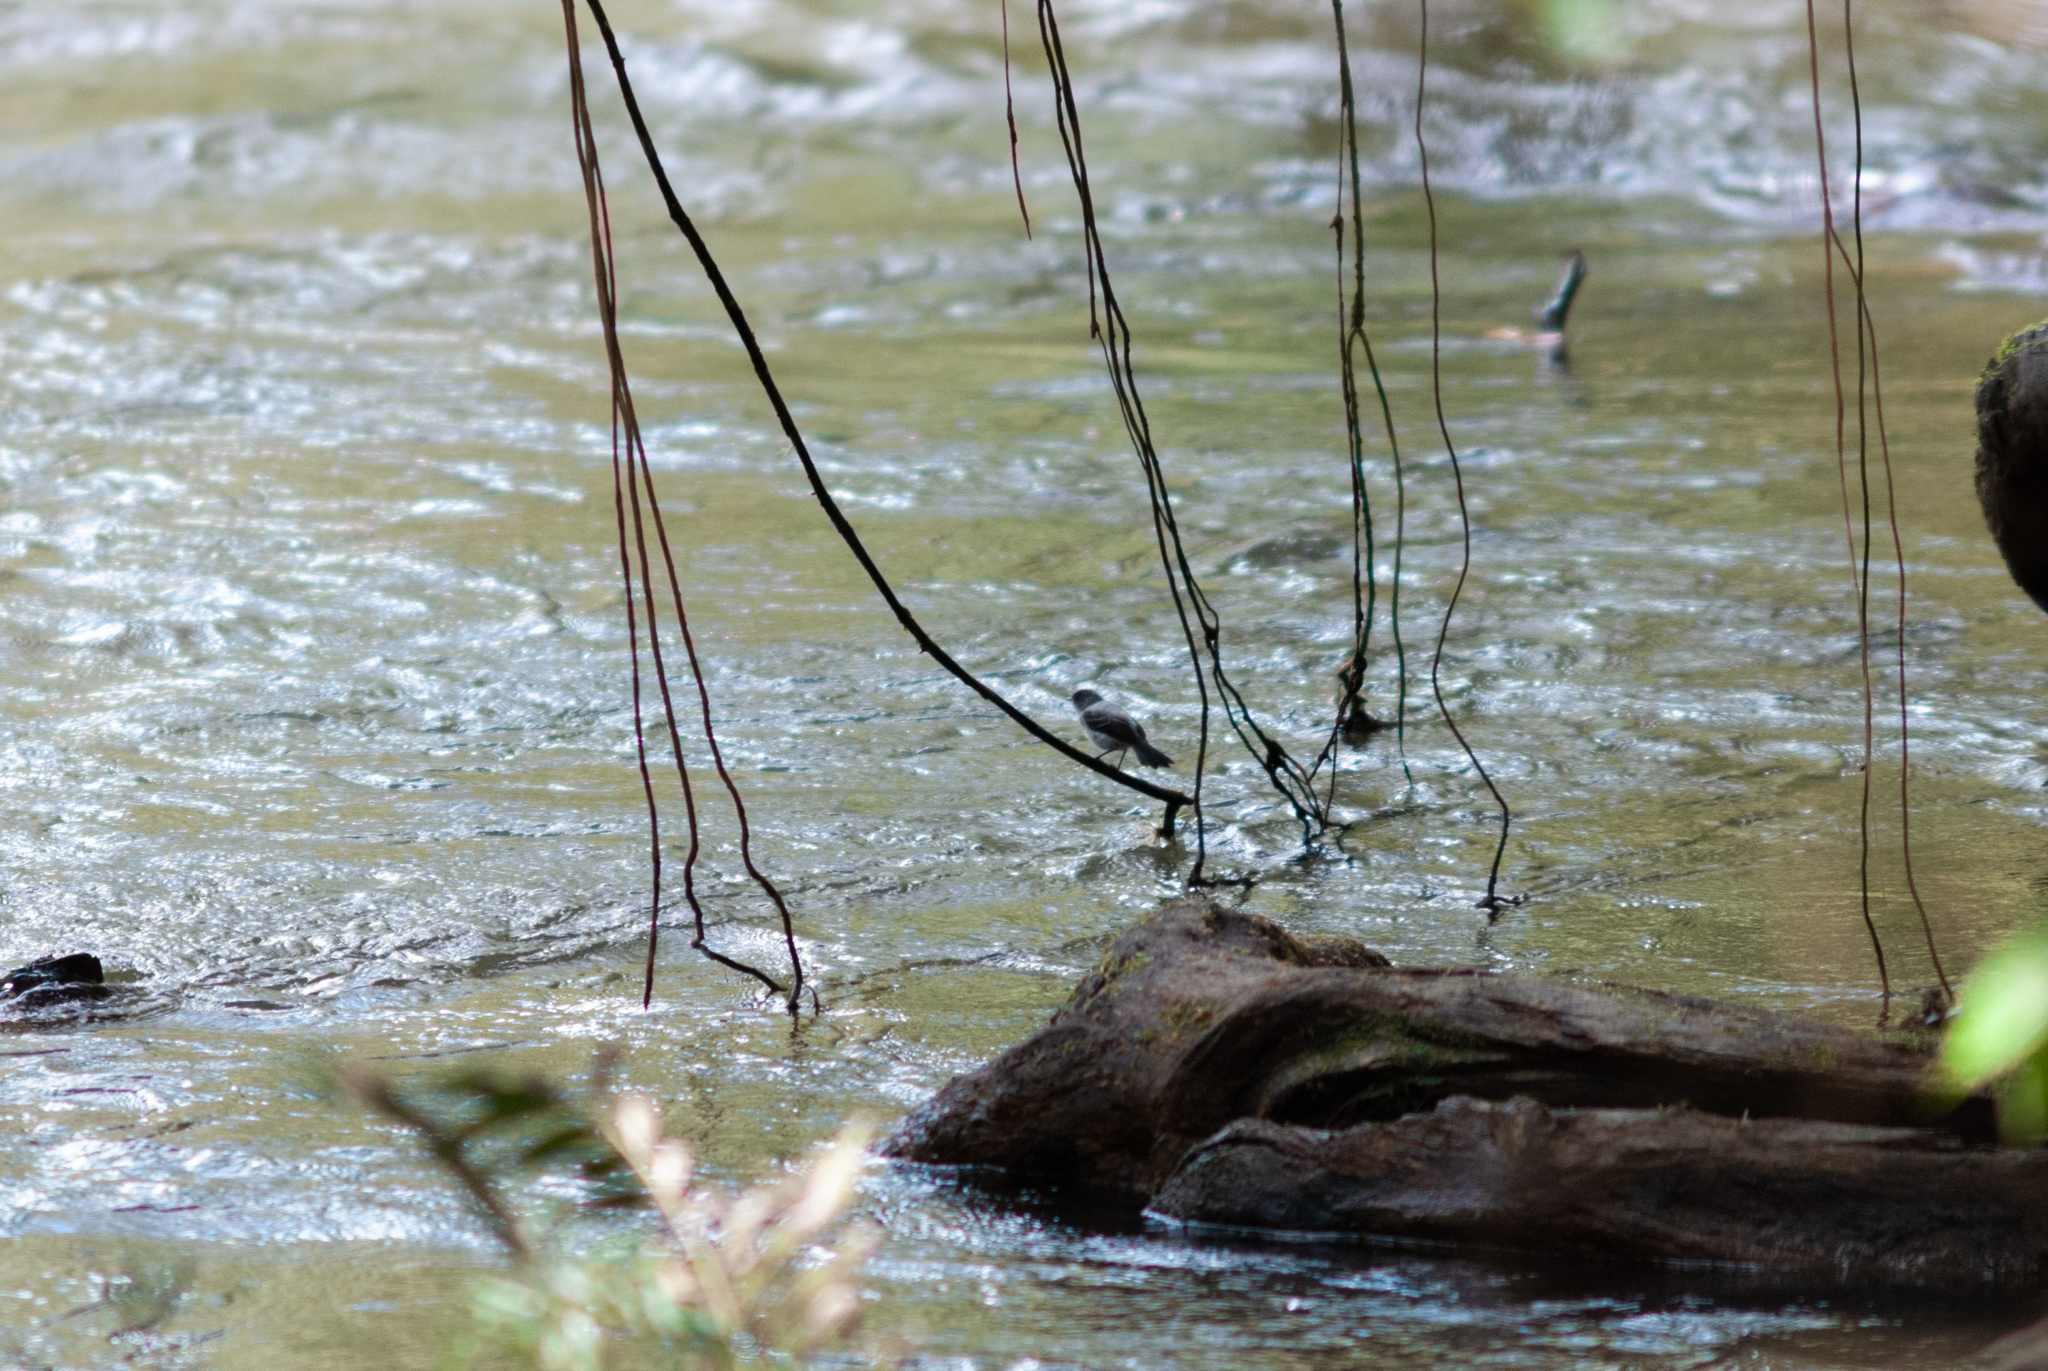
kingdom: Animalia
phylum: Chordata
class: Aves
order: Passeriformes
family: Tyrannidae
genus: Serpophaga
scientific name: Serpophaga cinerea
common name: Torrent tyrannulet
